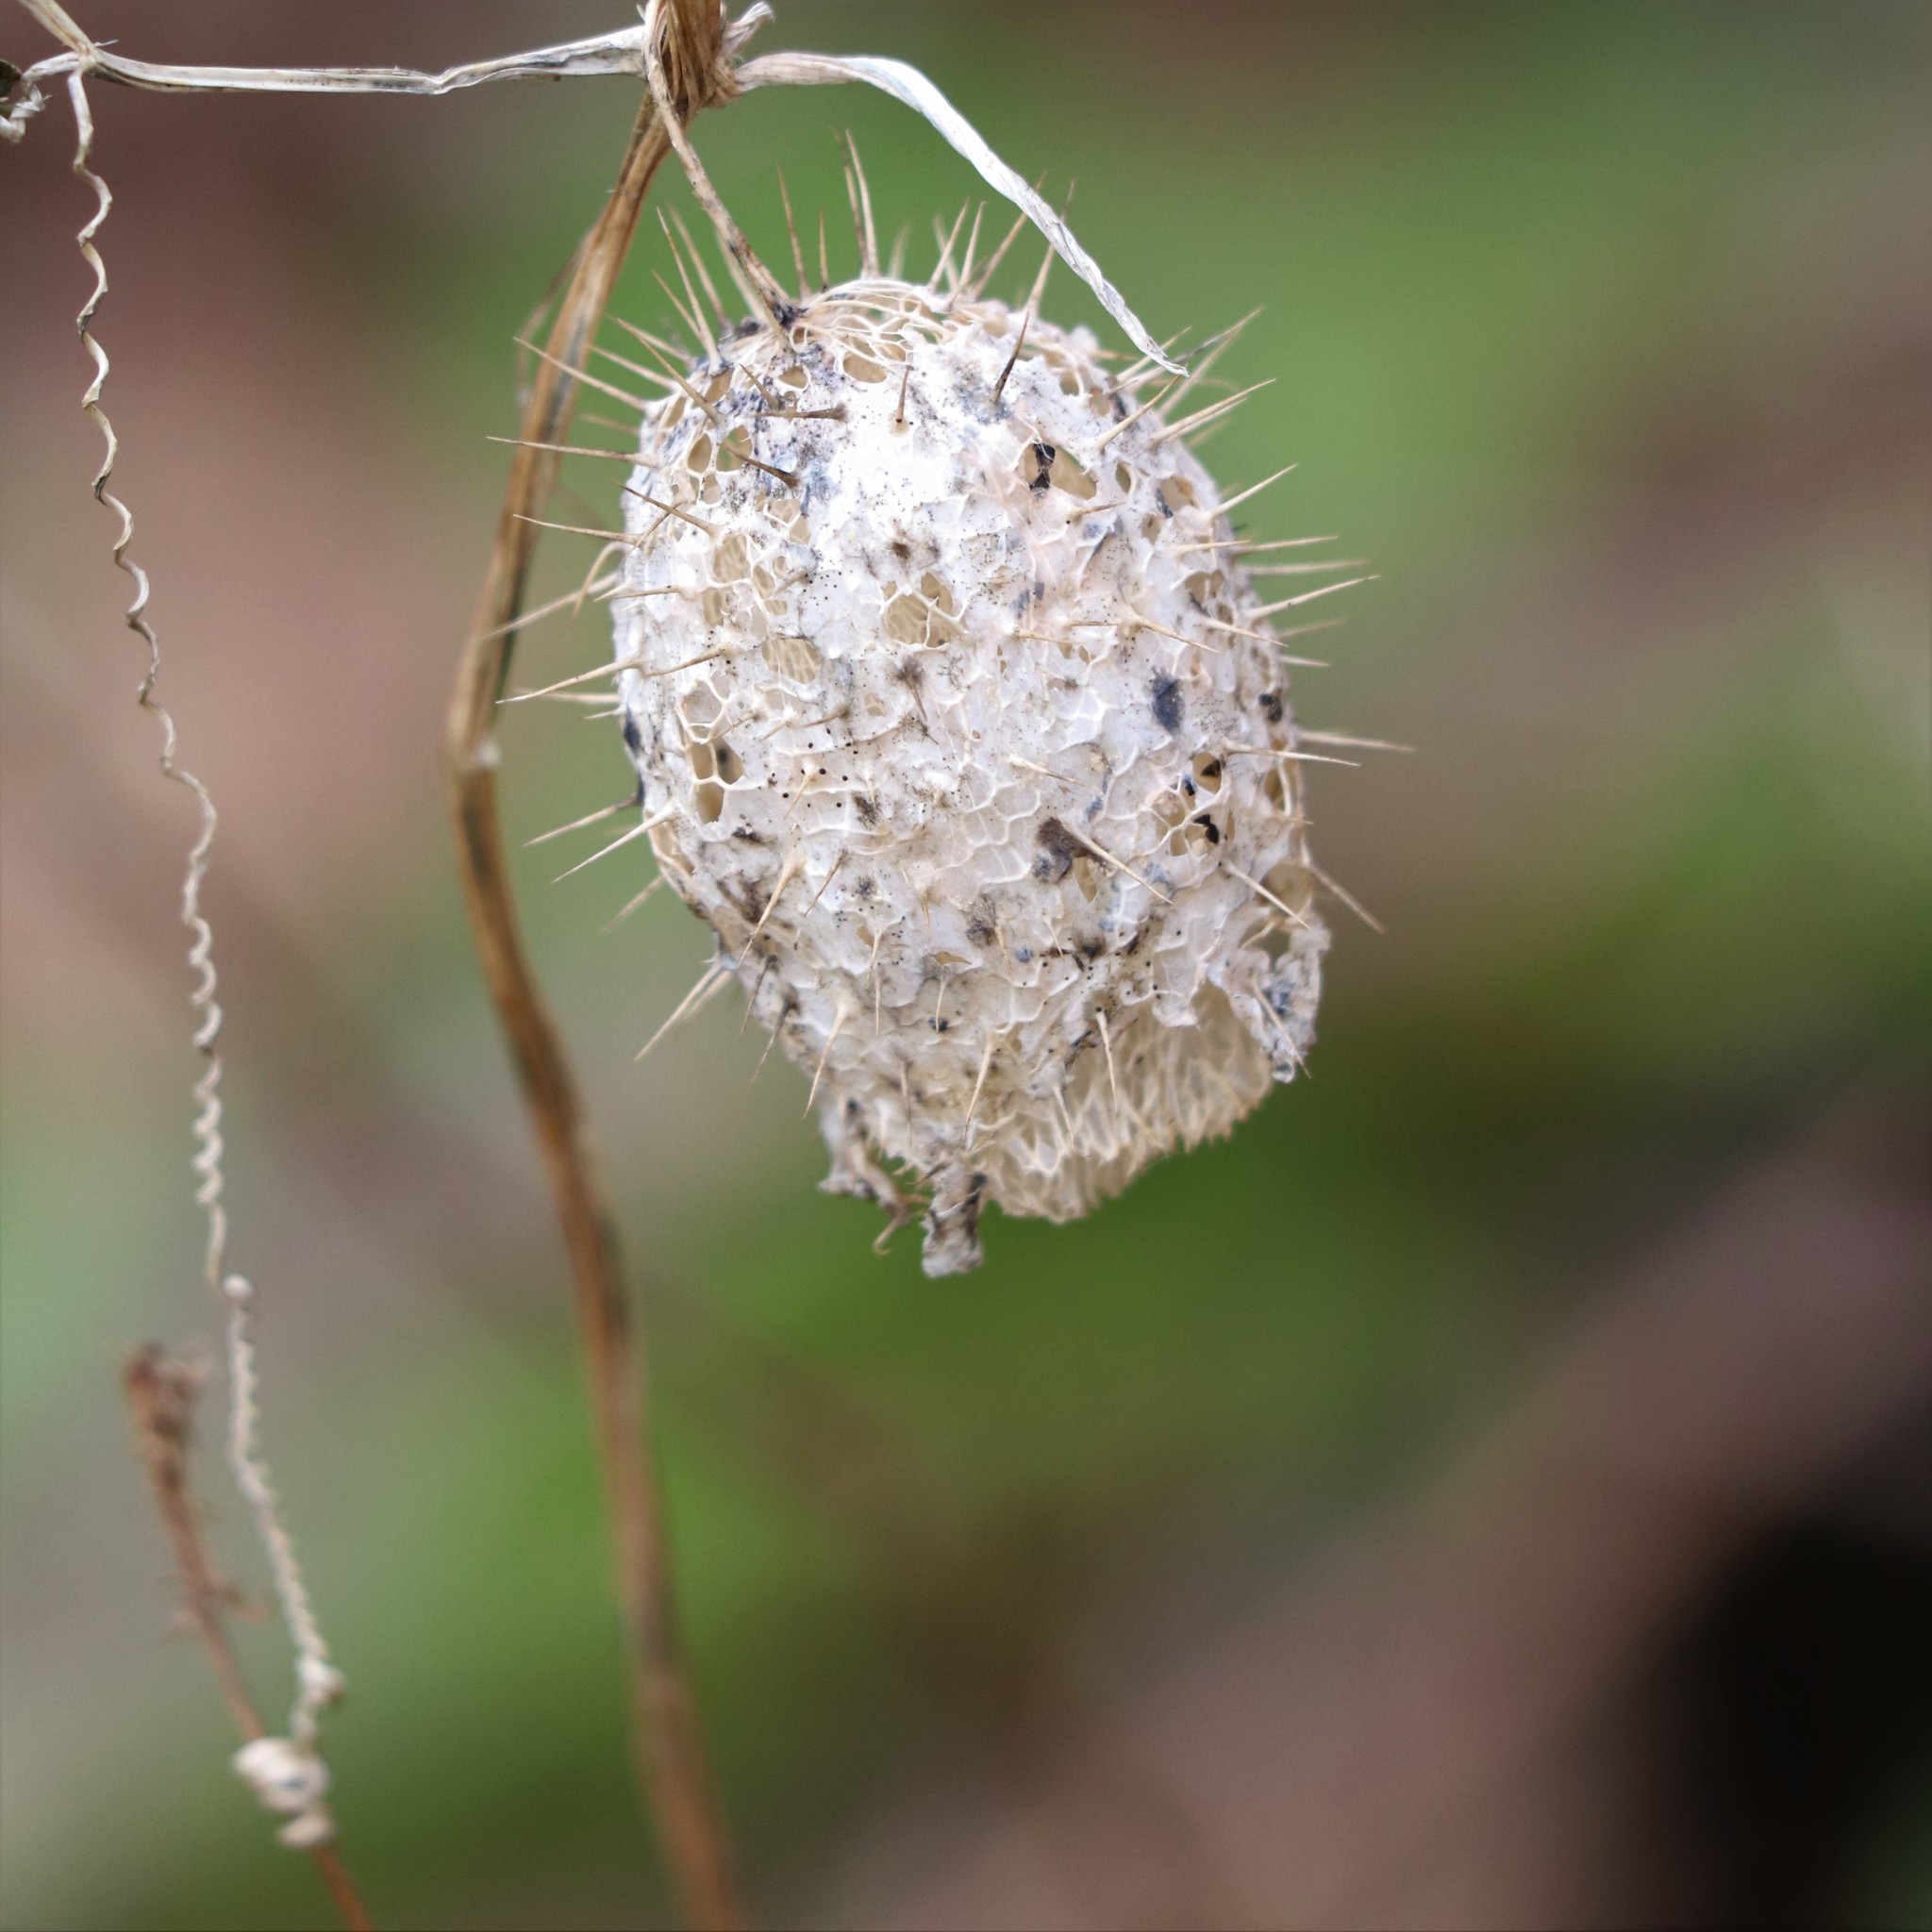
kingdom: Plantae
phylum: Tracheophyta
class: Magnoliopsida
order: Cucurbitales
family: Cucurbitaceae
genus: Echinocystis
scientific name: Echinocystis lobata
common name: Wild cucumber
